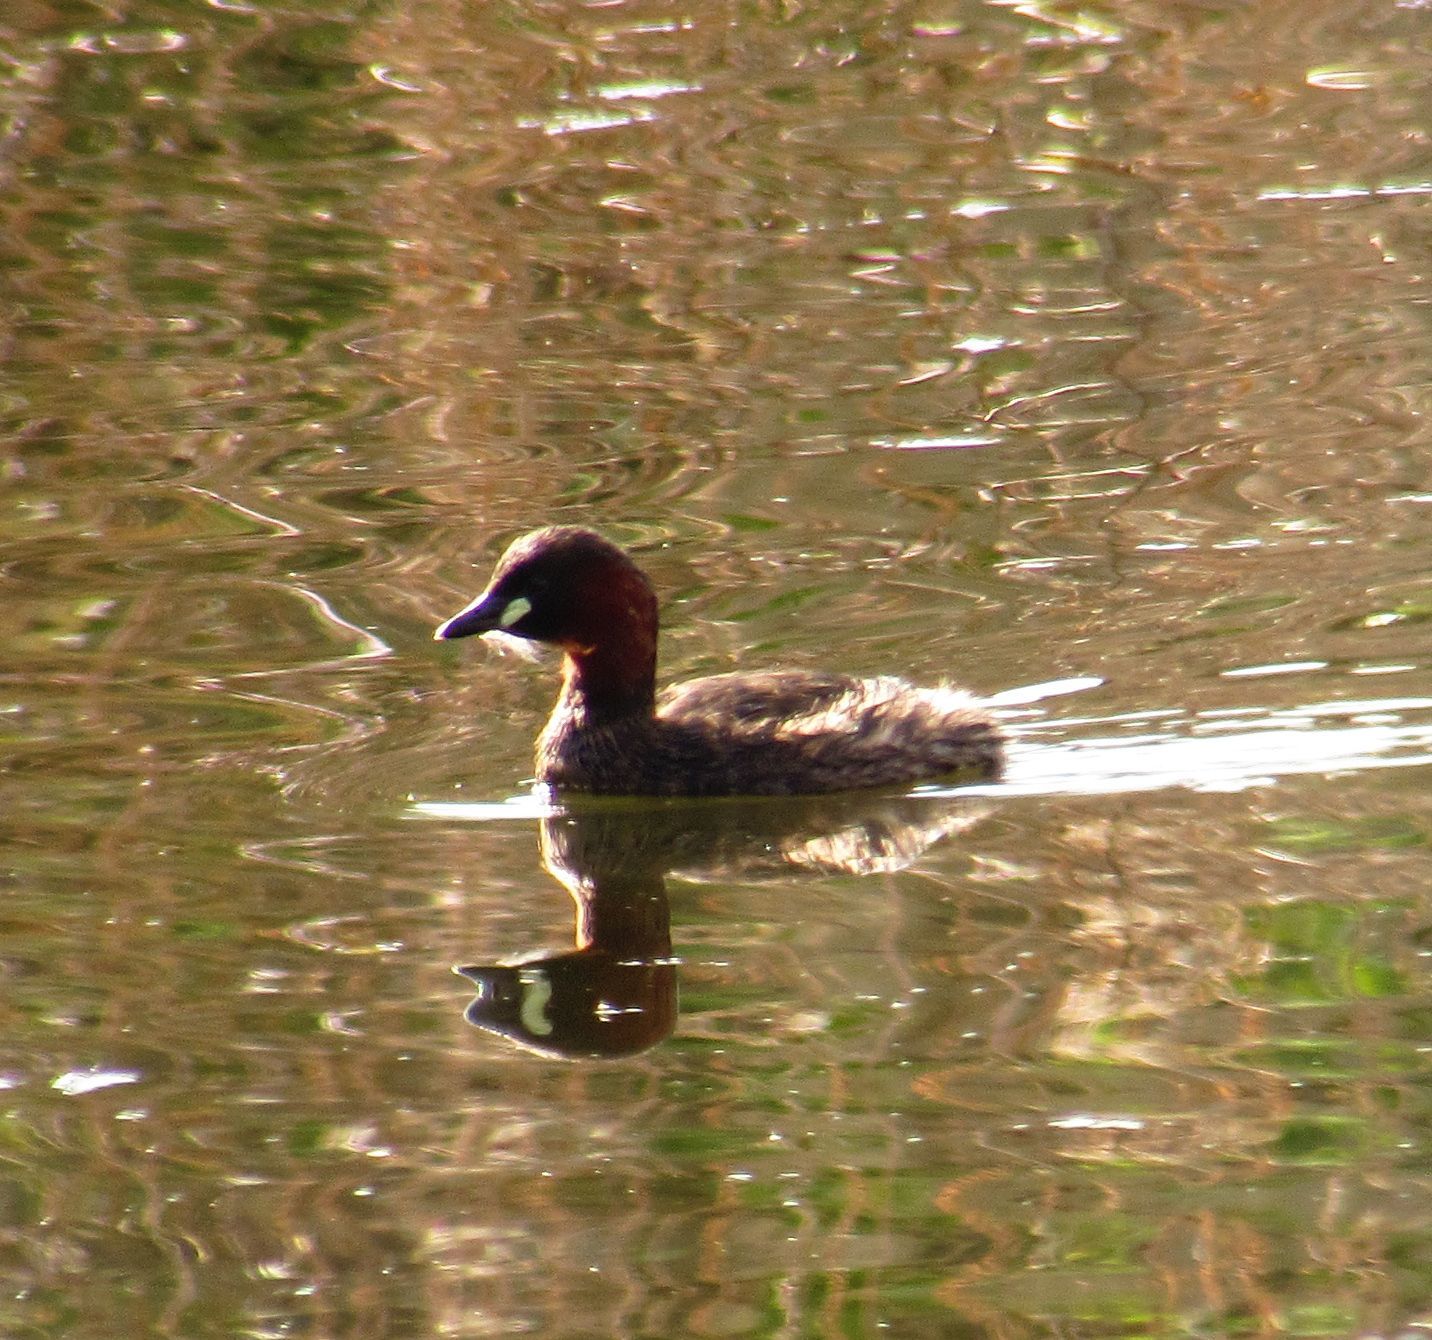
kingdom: Animalia
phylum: Chordata
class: Aves
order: Podicipediformes
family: Podicipedidae
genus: Tachybaptus
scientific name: Tachybaptus ruficollis
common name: Little grebe
